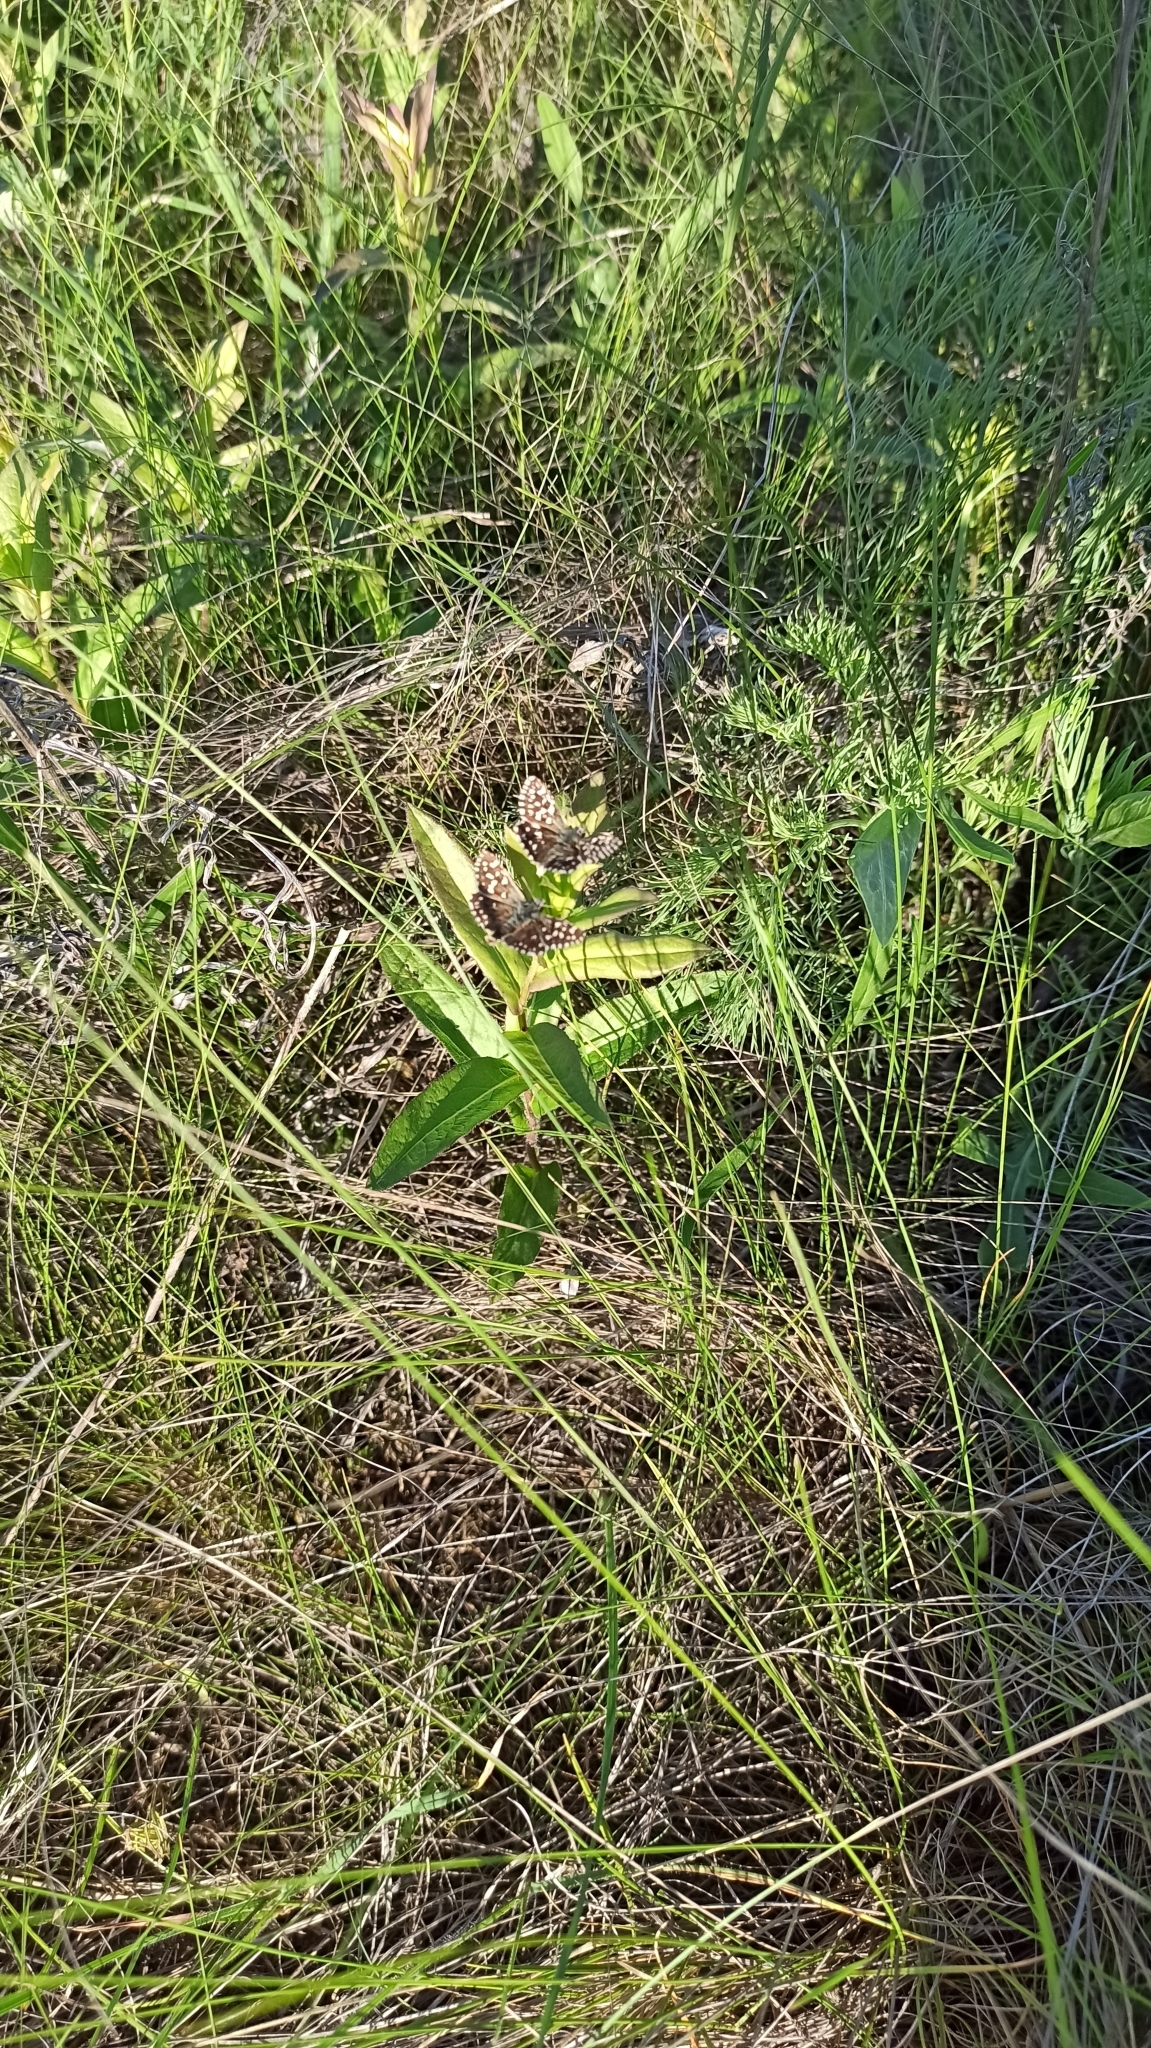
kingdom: Animalia
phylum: Arthropoda
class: Insecta
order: Lepidoptera
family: Hesperiidae
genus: Pyrgus
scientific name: Pyrgus malvae
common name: Grizzled skipper
